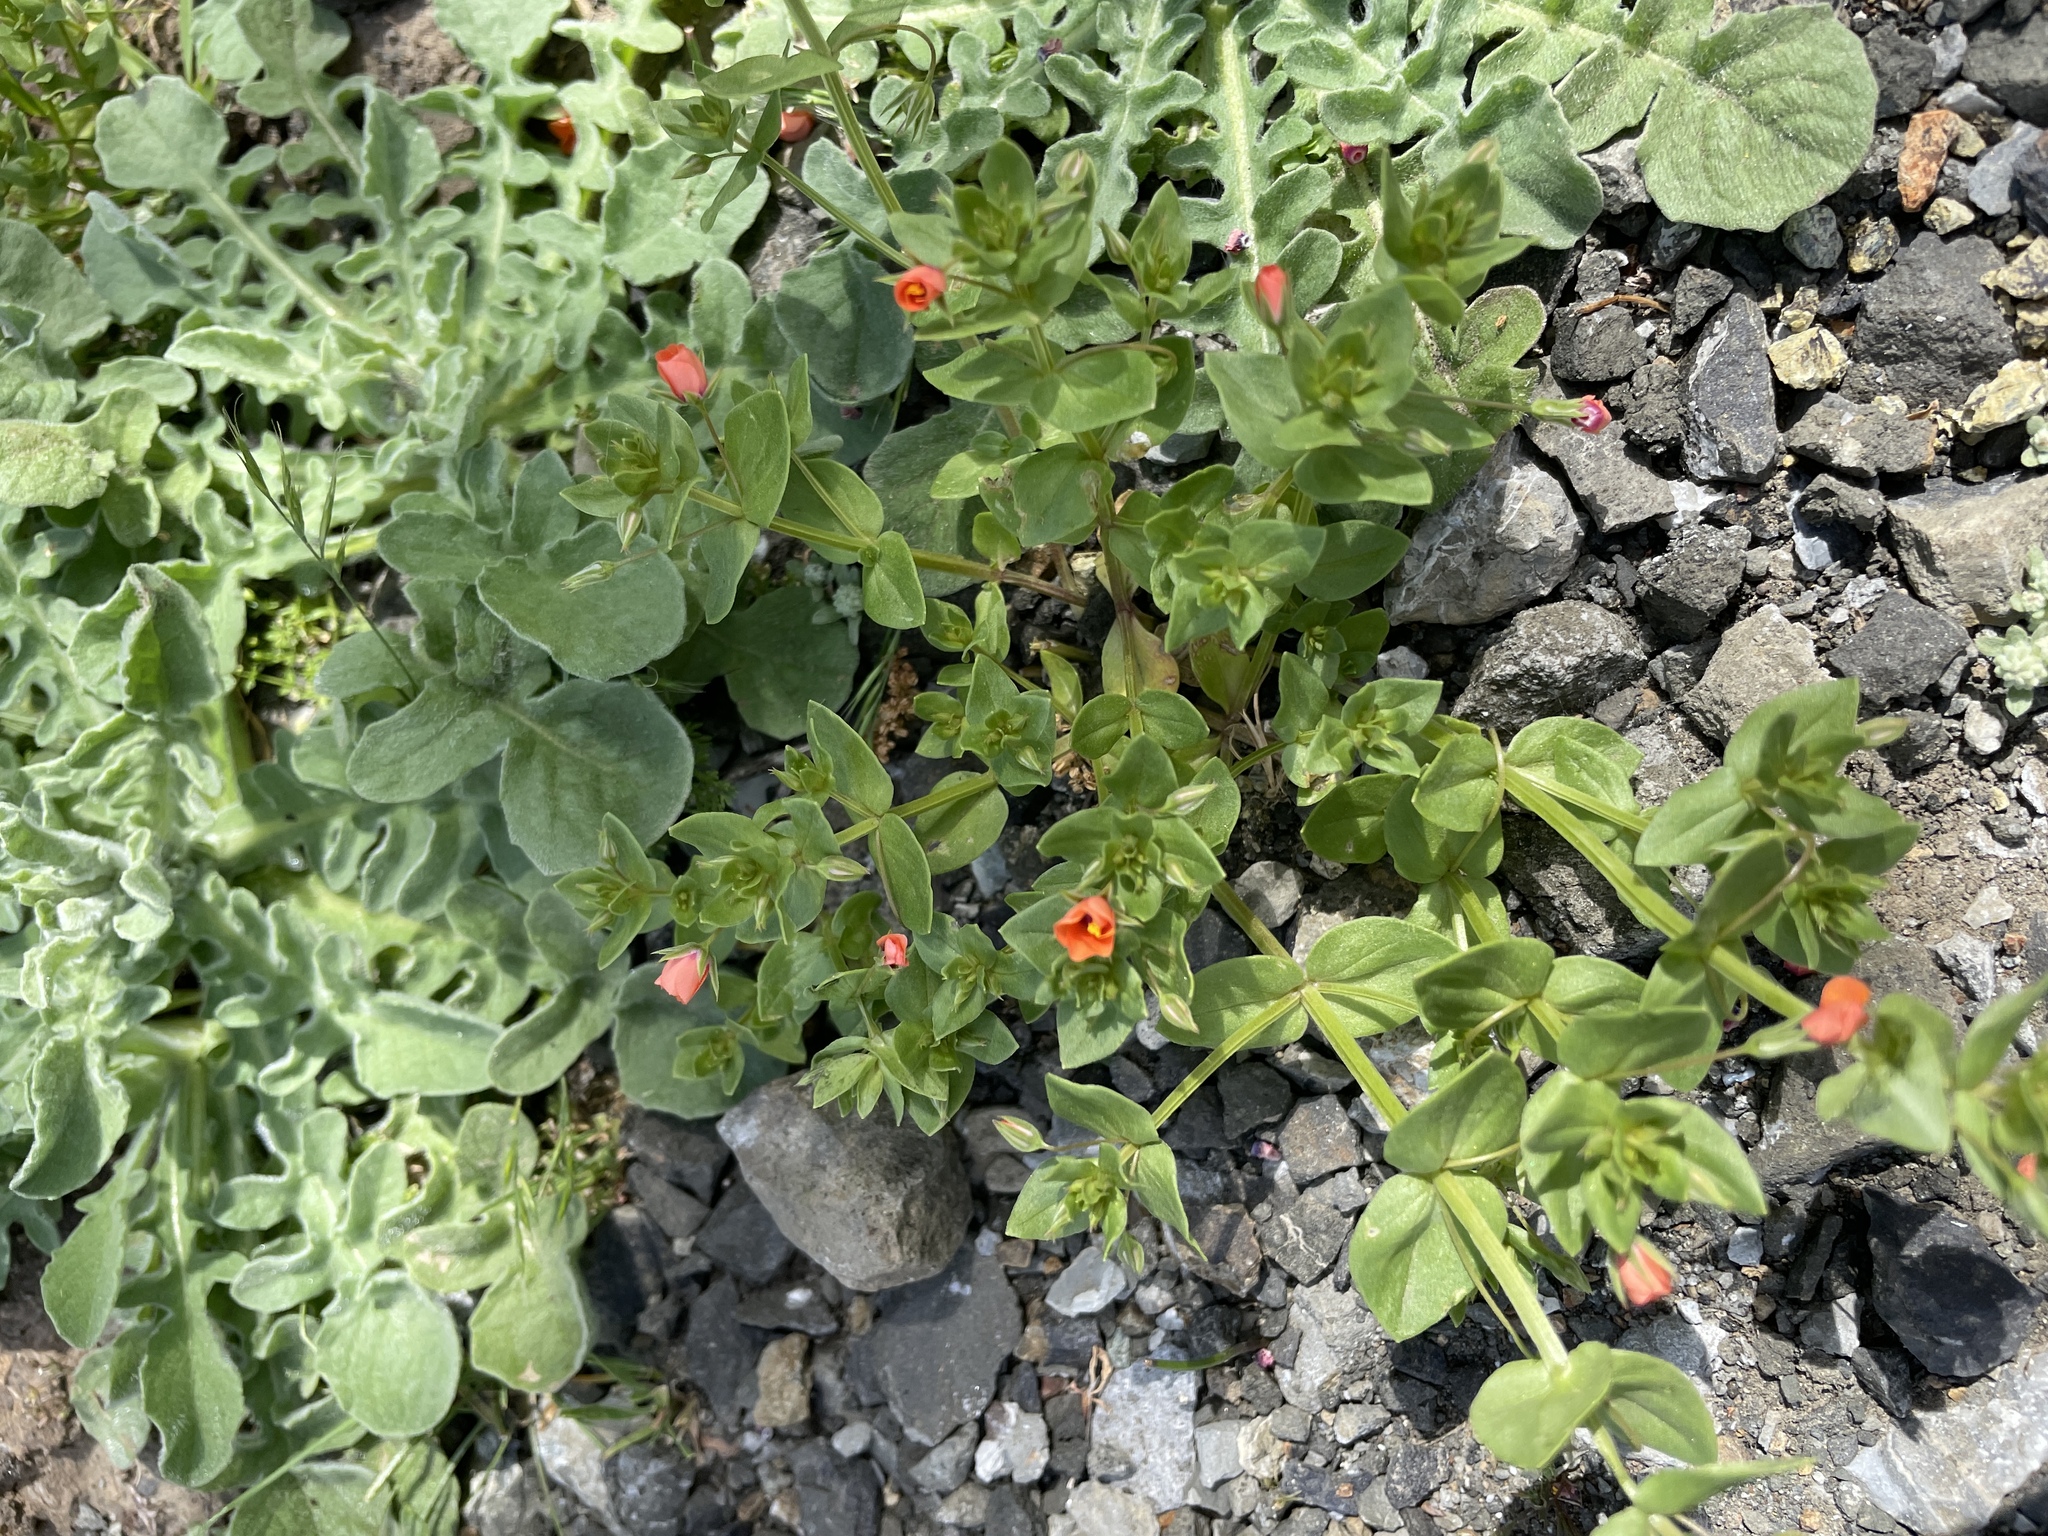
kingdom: Plantae
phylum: Tracheophyta
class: Magnoliopsida
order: Ericales
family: Primulaceae
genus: Lysimachia
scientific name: Lysimachia arvensis
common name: Scarlet pimpernel
